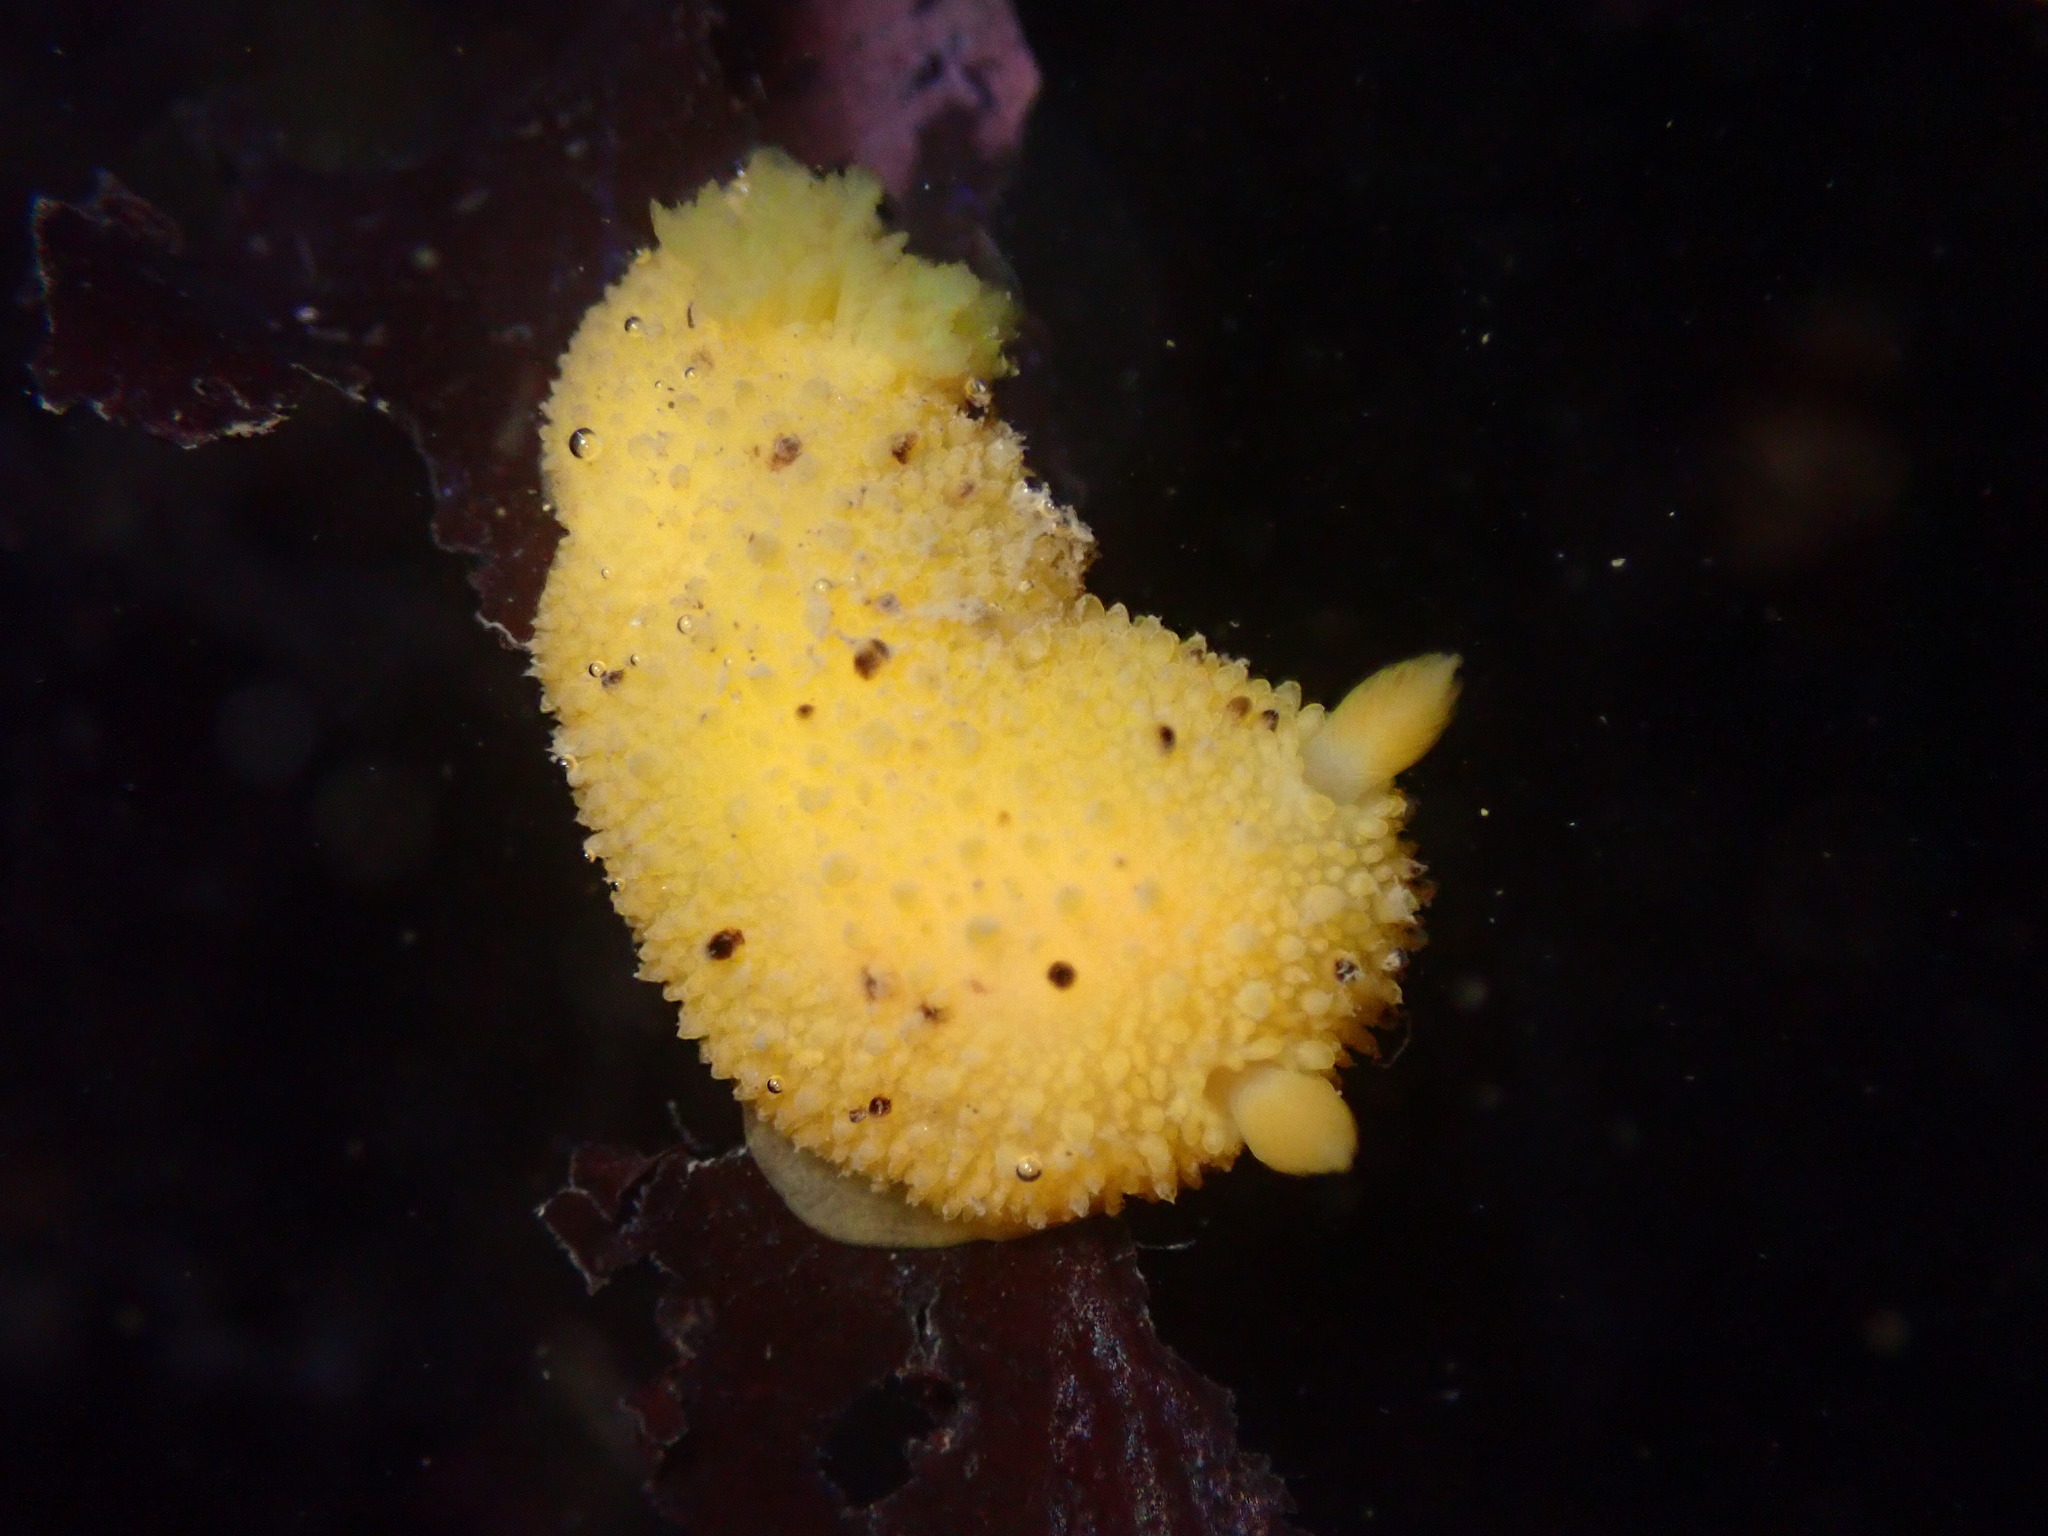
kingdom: Animalia
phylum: Mollusca
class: Gastropoda
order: Nudibranchia
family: Dorididae
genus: Doris
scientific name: Doris montereyensis
